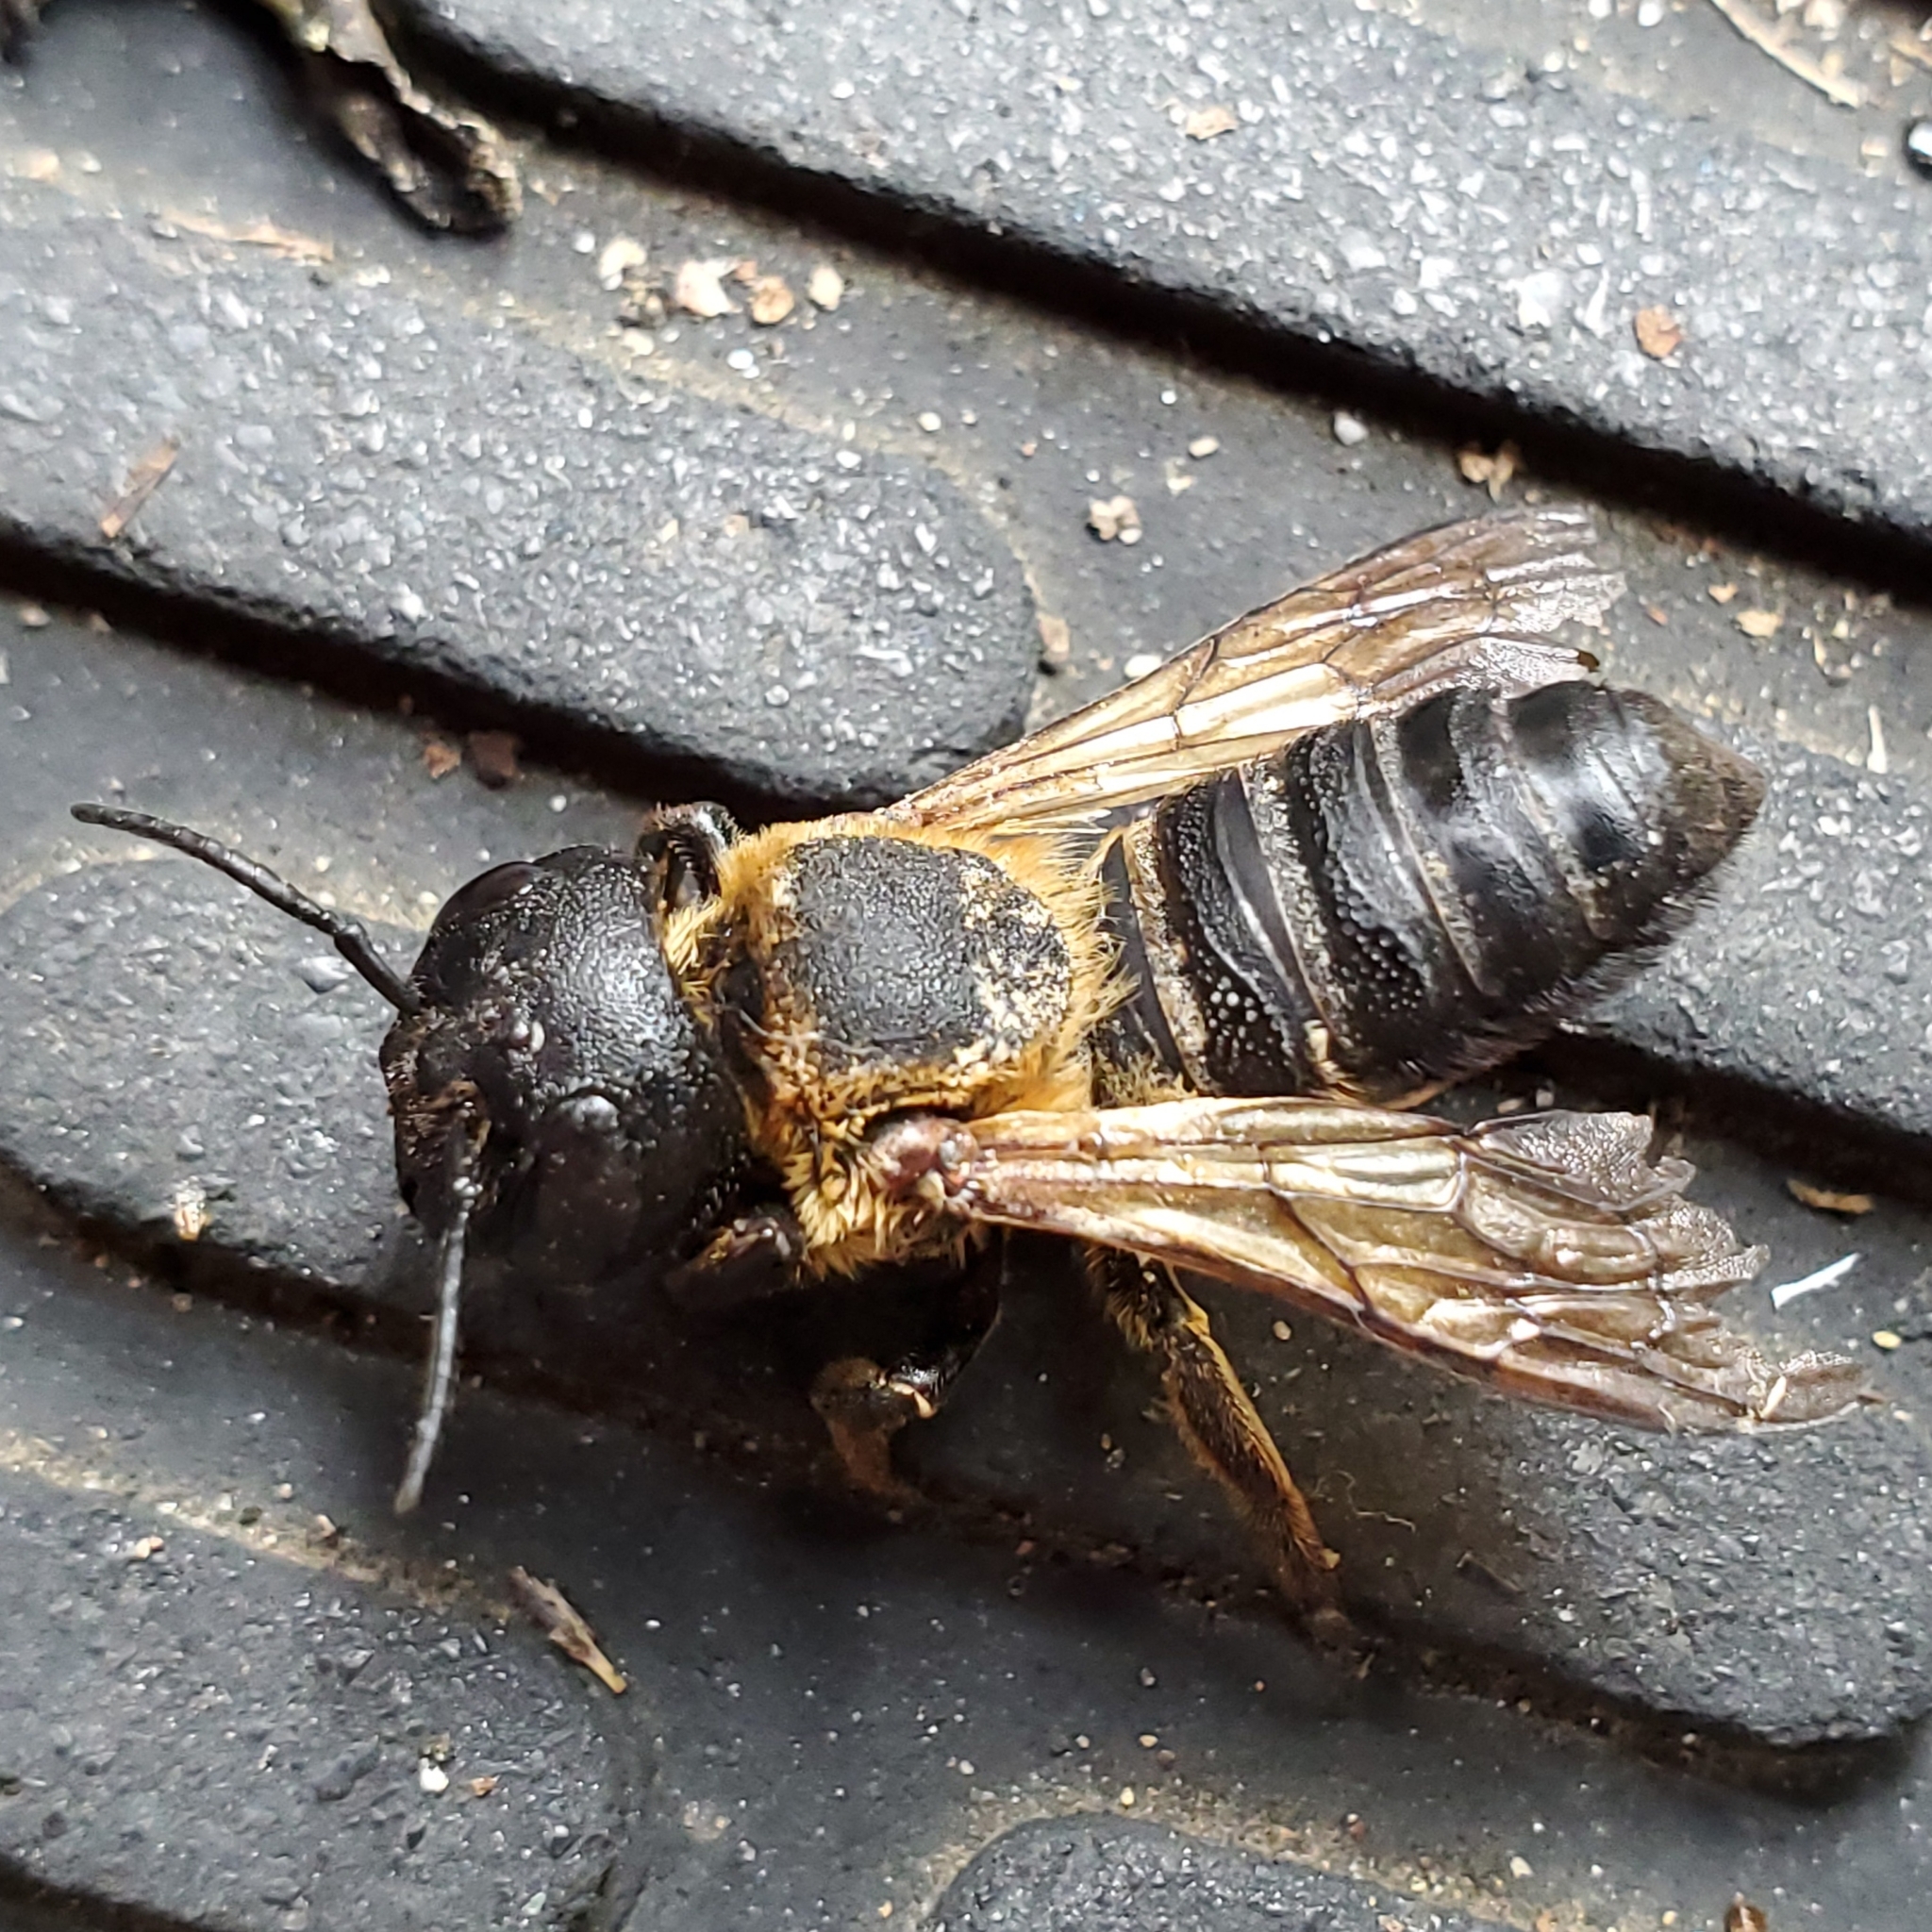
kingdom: Animalia
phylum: Arthropoda
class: Insecta
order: Hymenoptera
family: Megachilidae
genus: Megachile
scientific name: Megachile sculpturalis
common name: Sculptured resin bee
